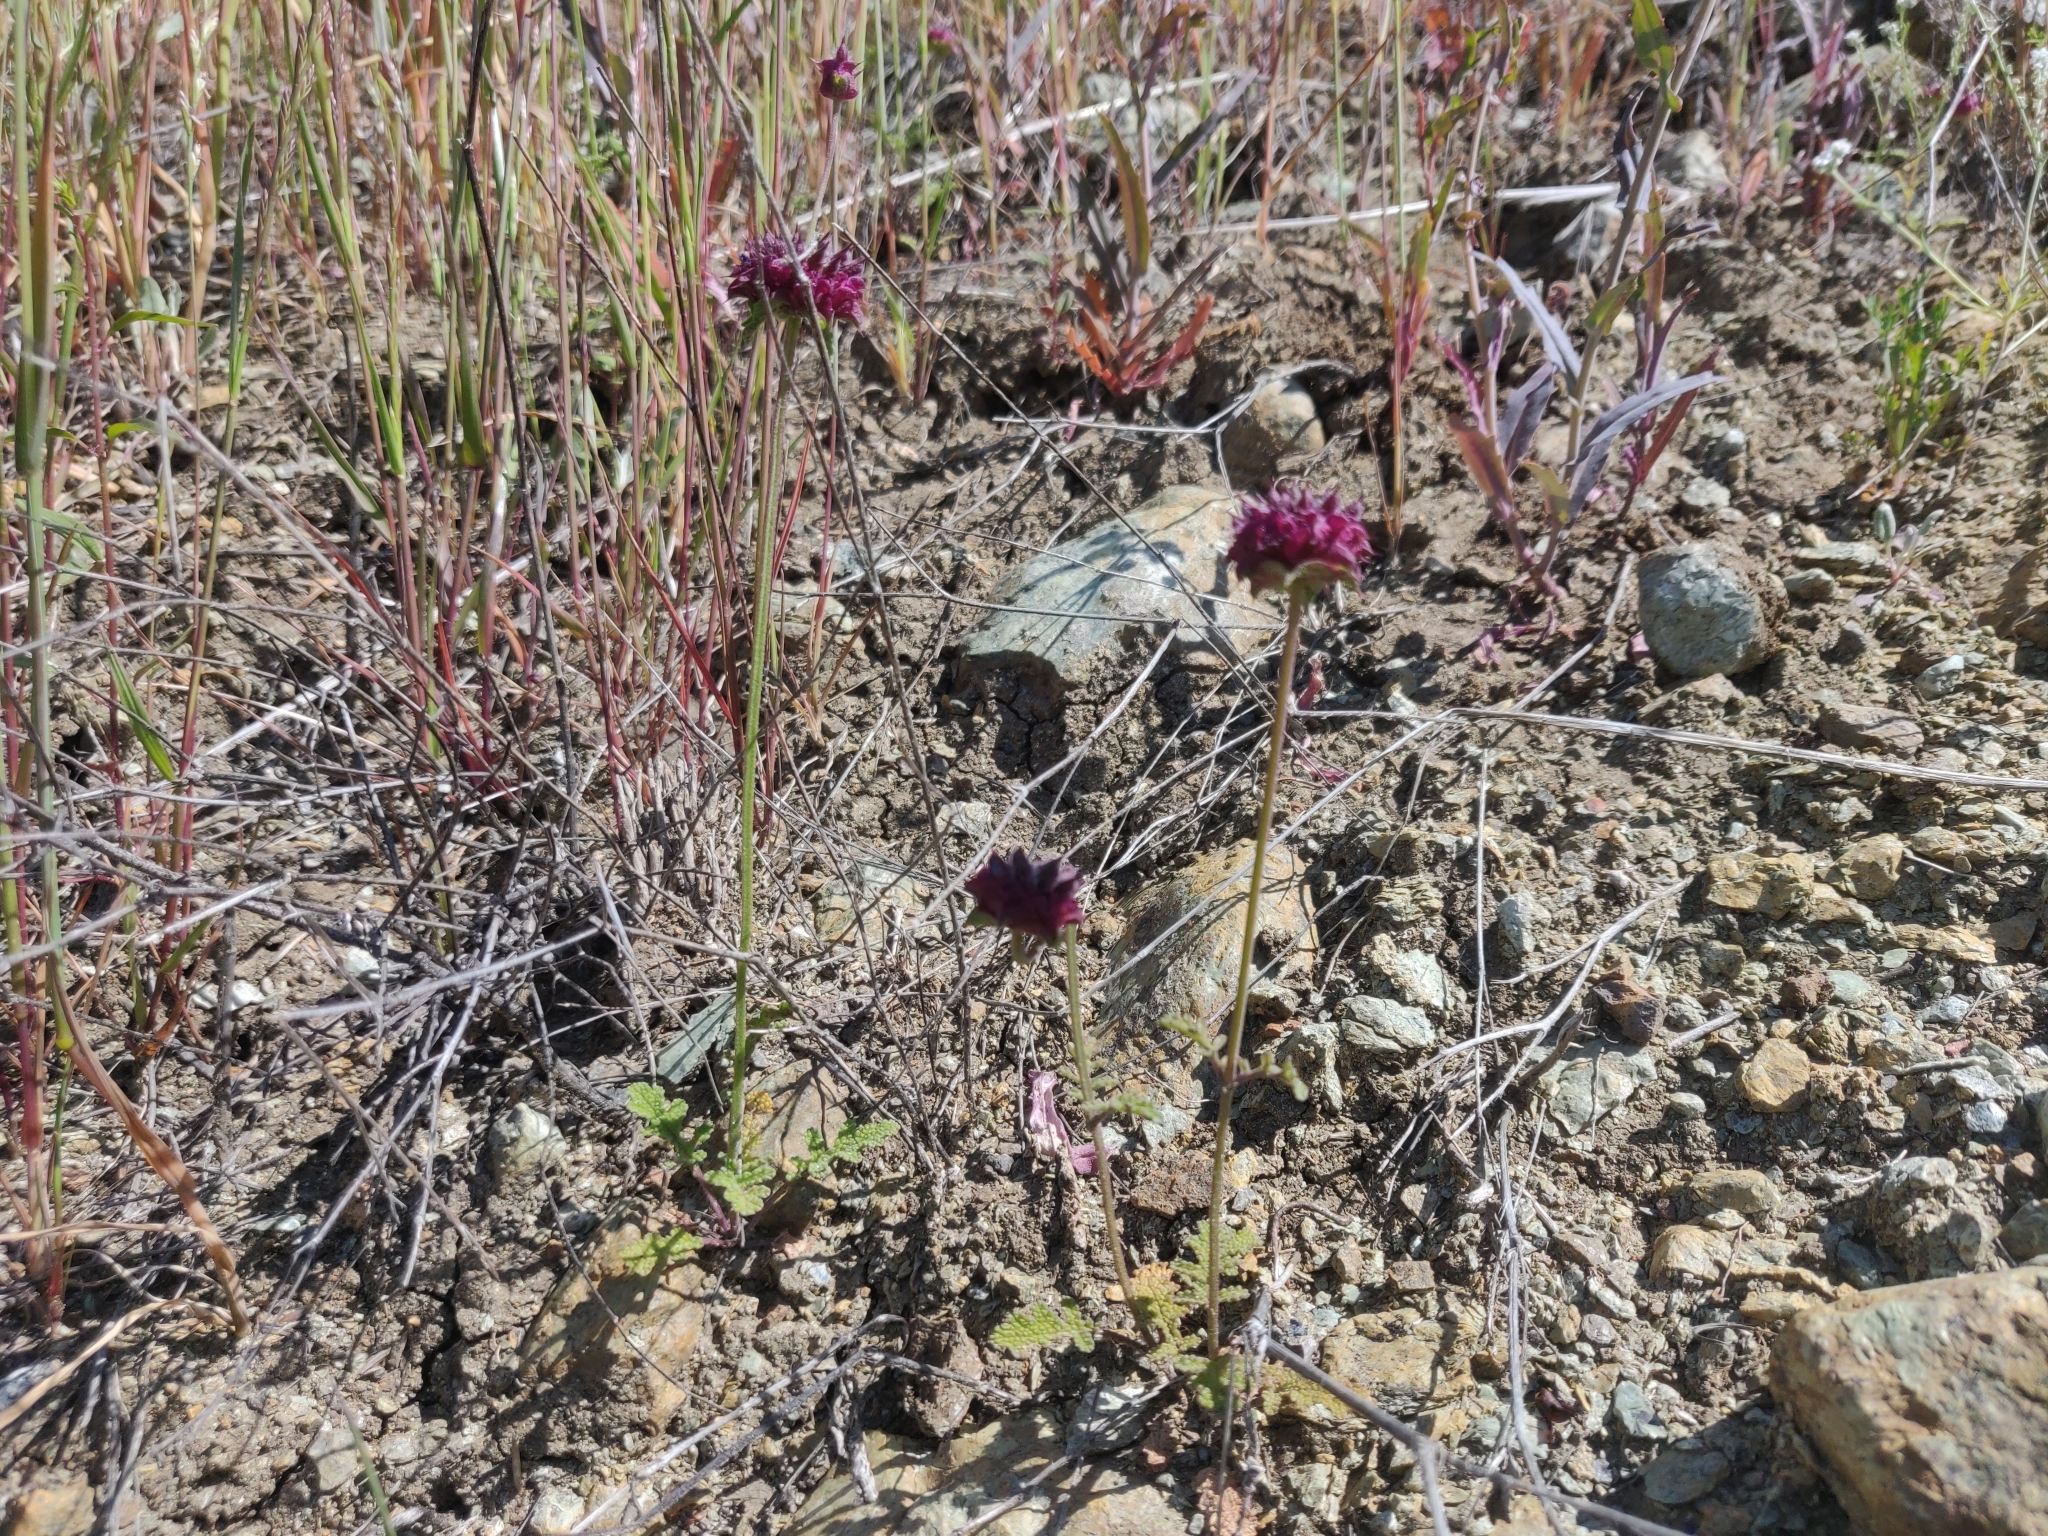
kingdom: Plantae
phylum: Tracheophyta
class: Magnoliopsida
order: Lamiales
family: Lamiaceae
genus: Salvia
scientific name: Salvia columbariae
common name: Chia
